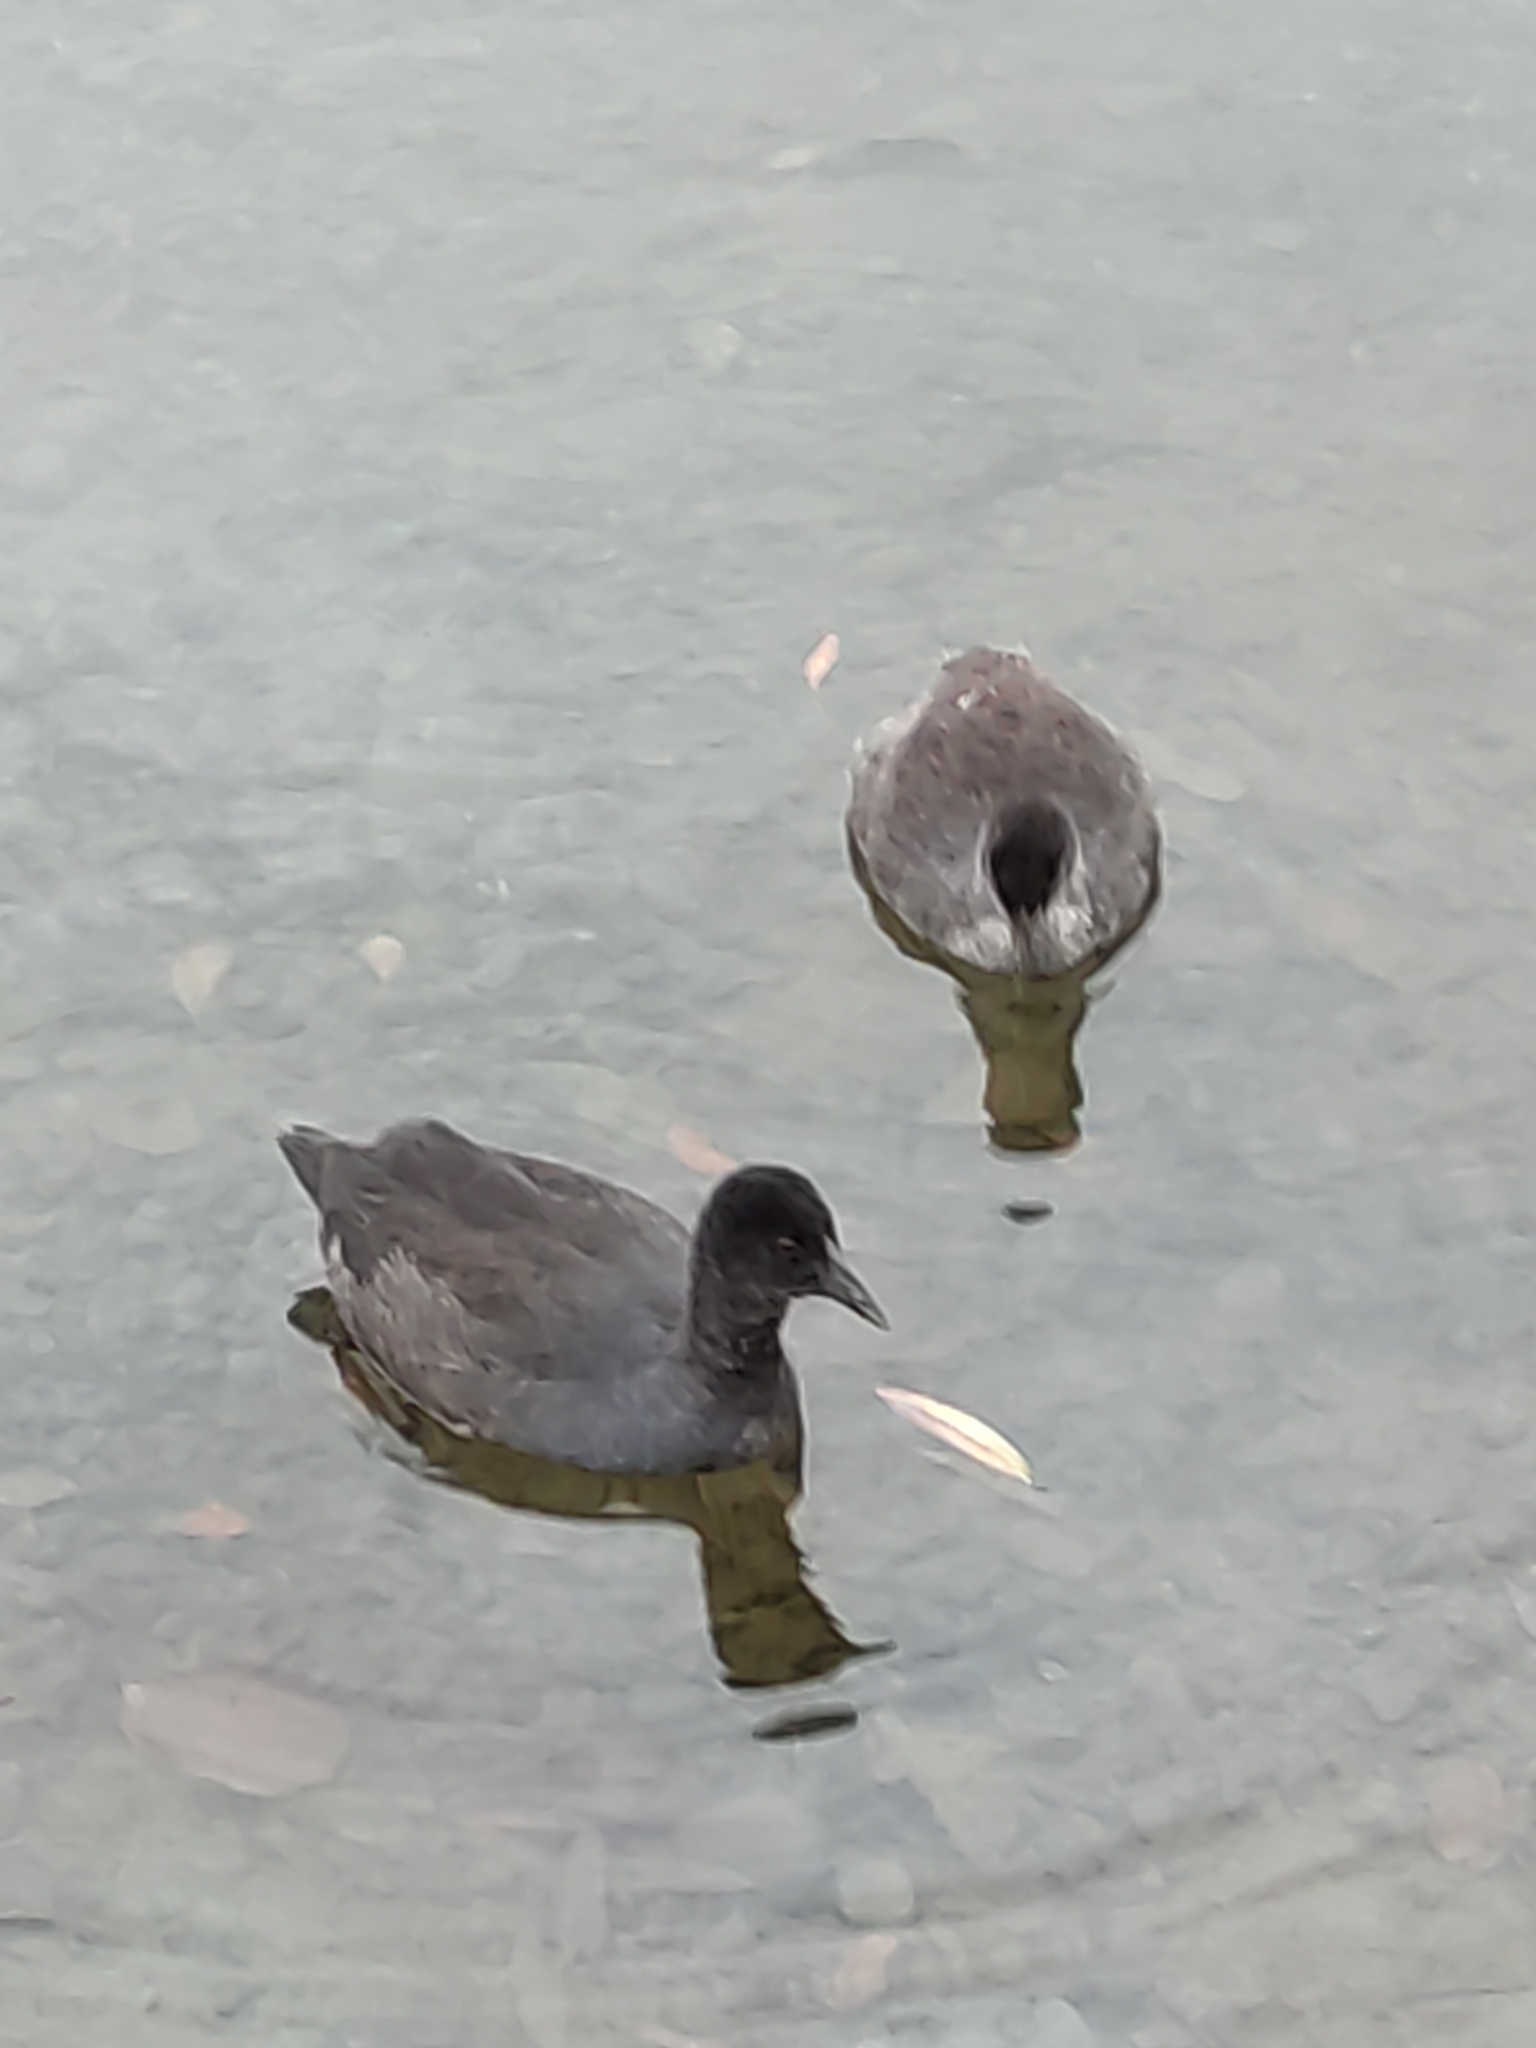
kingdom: Animalia
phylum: Chordata
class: Aves
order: Gruiformes
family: Rallidae
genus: Fulica
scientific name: Fulica atra
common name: Eurasian coot
